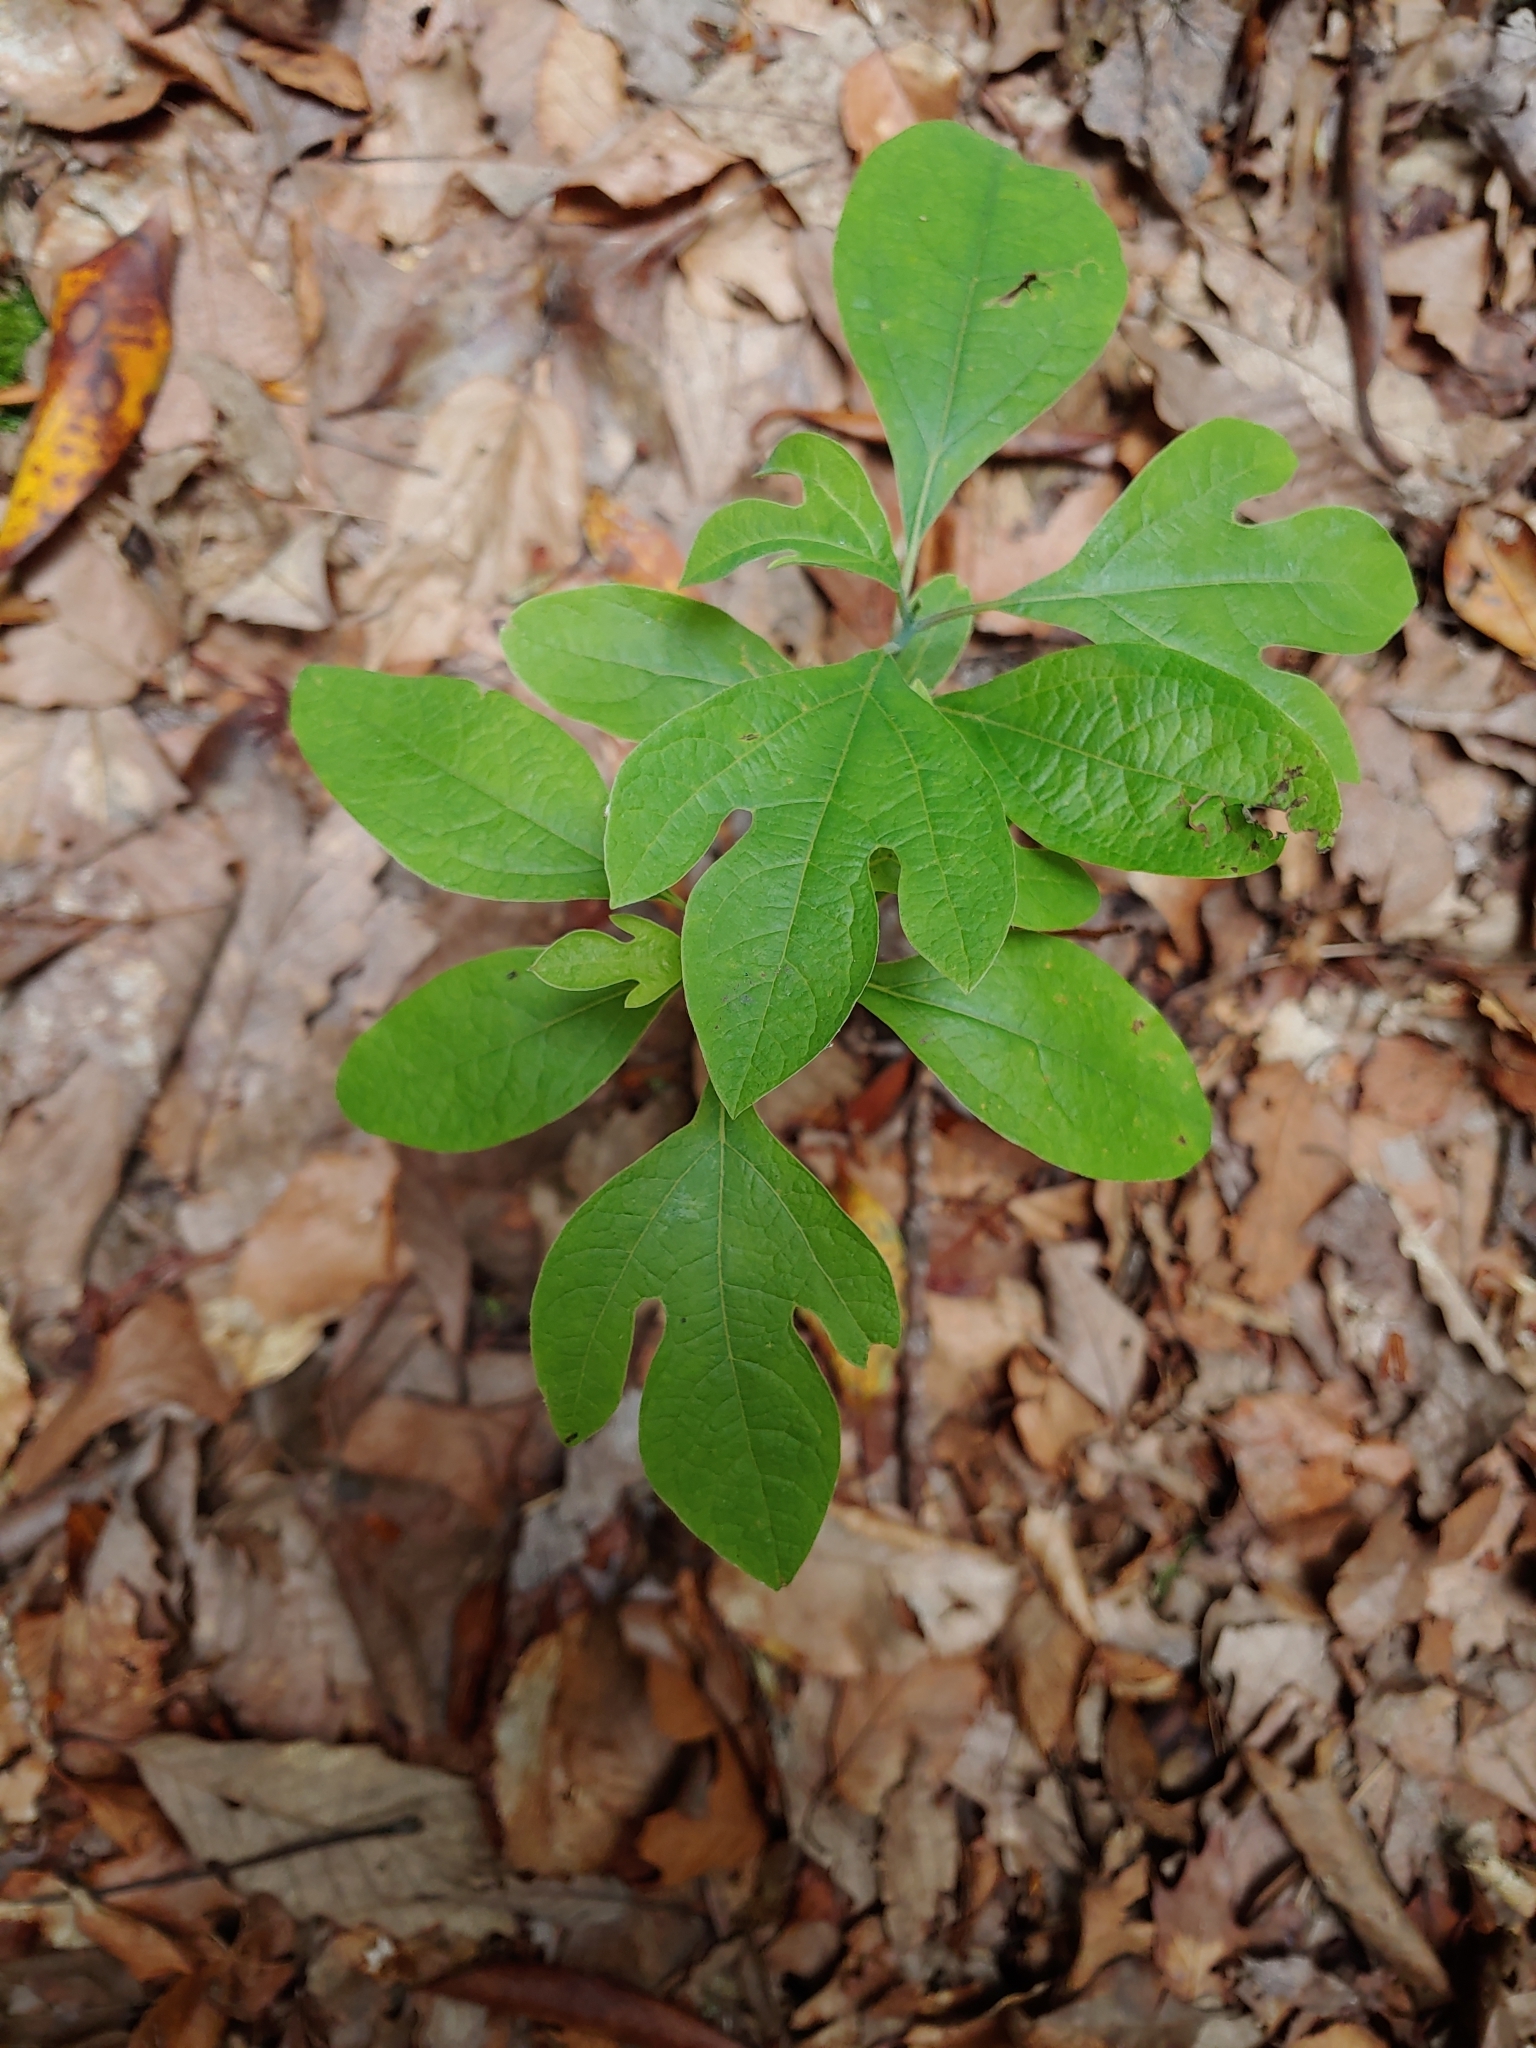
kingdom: Plantae
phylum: Tracheophyta
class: Magnoliopsida
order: Laurales
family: Lauraceae
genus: Sassafras
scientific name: Sassafras albidum
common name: Sassafras
